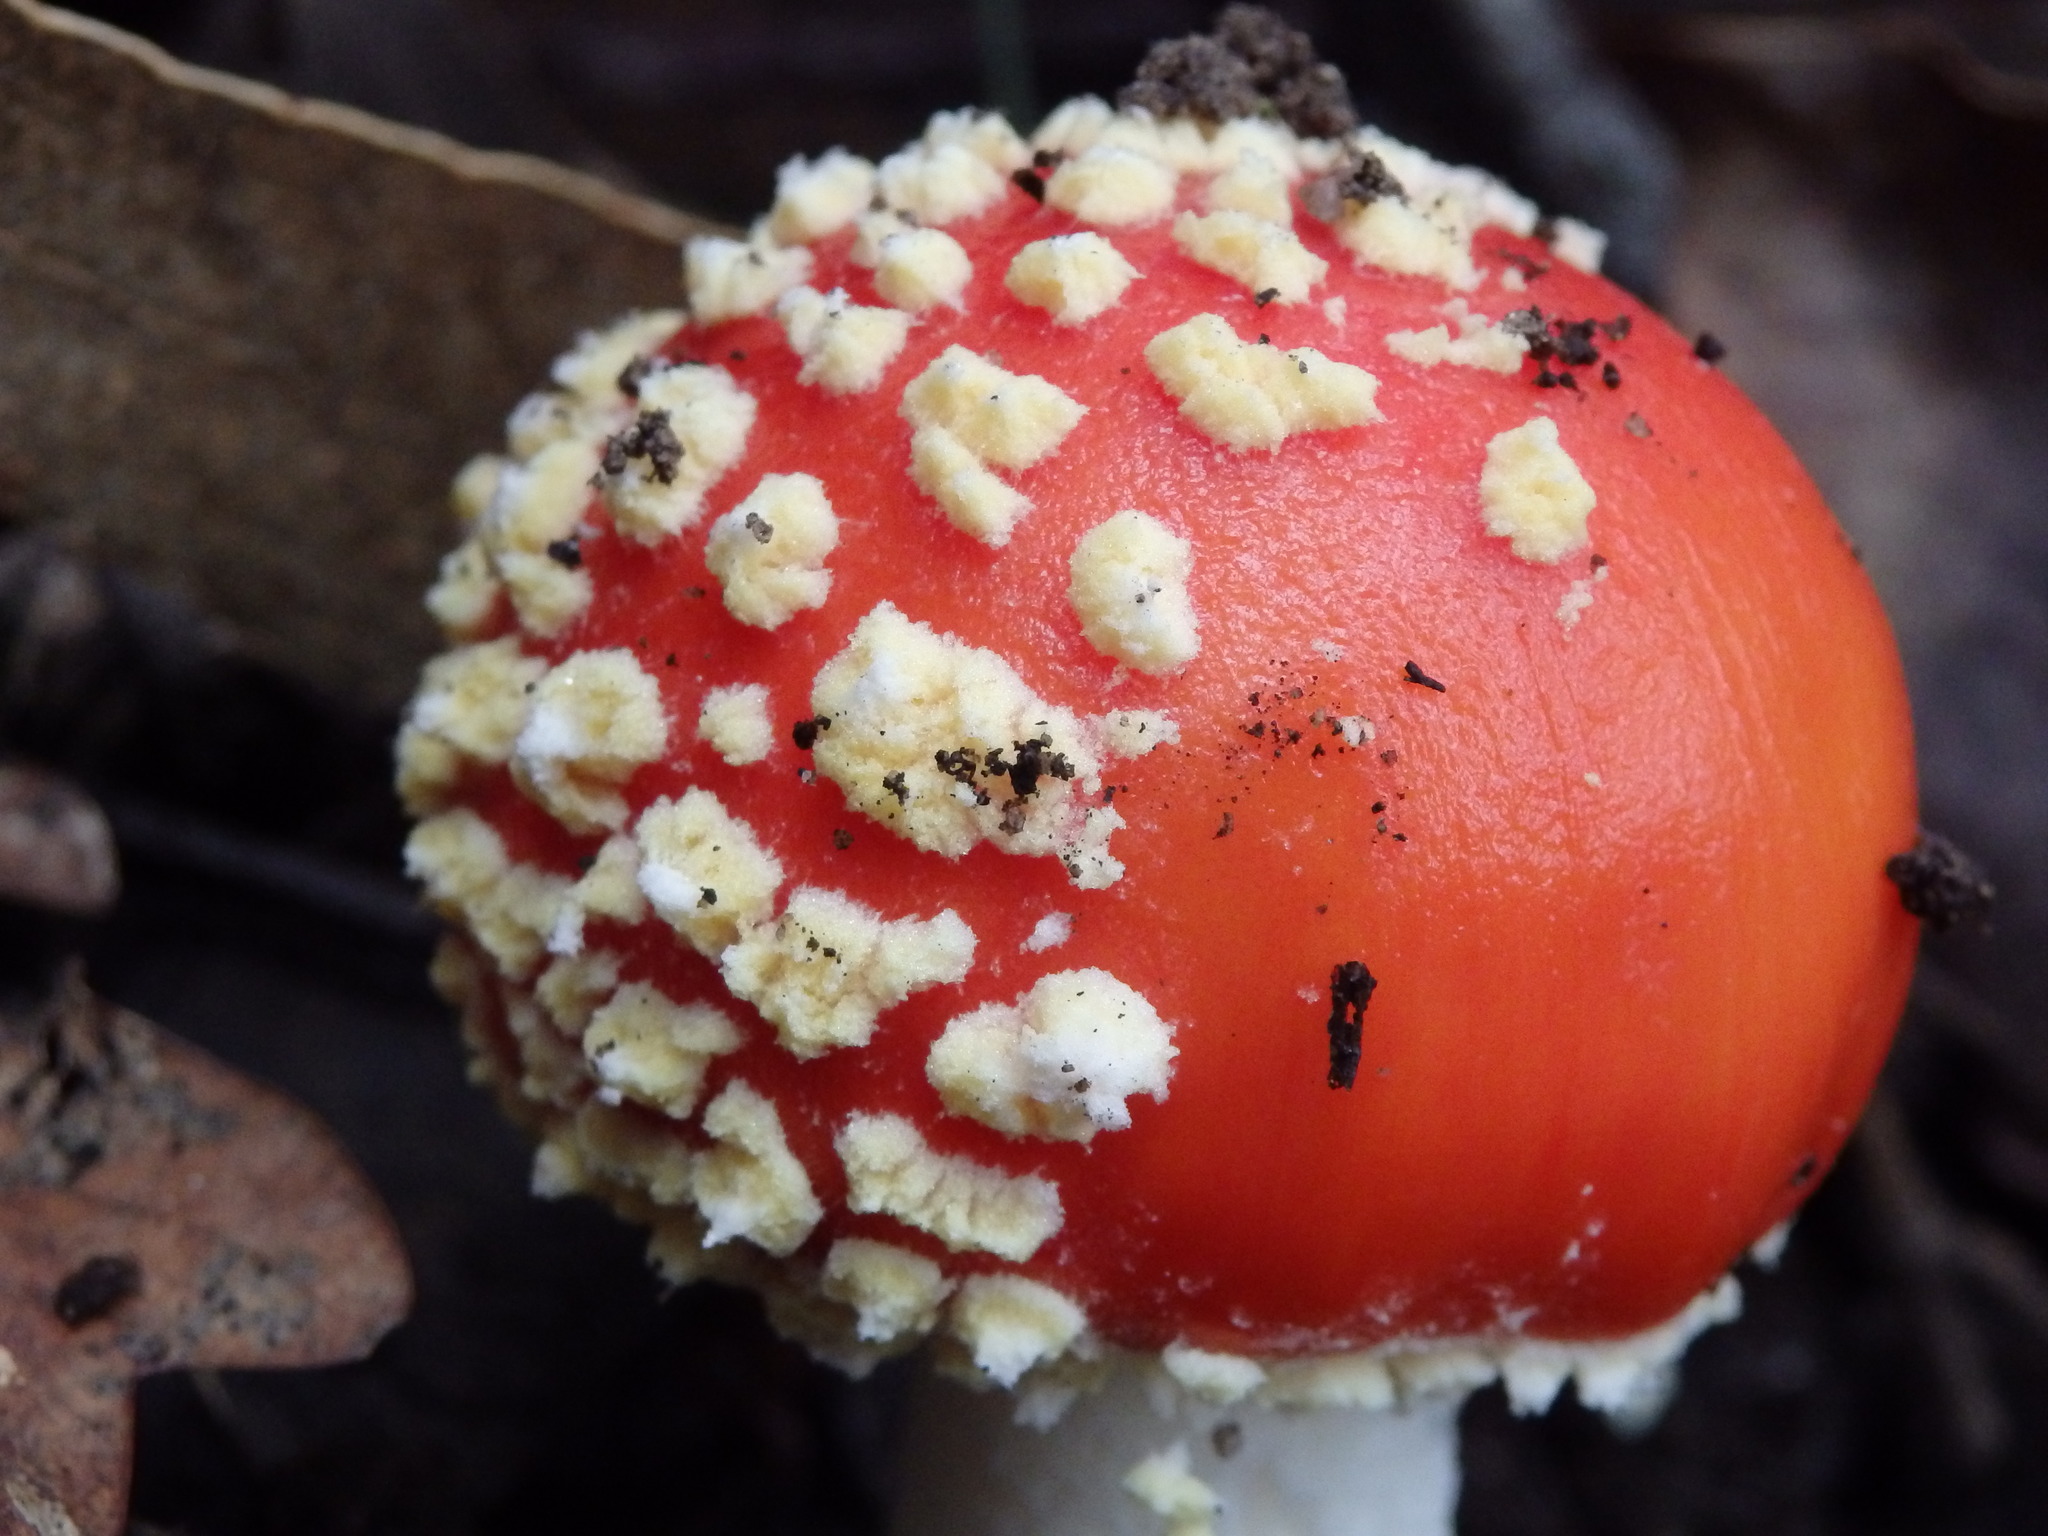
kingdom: Fungi
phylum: Basidiomycota
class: Agaricomycetes
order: Agaricales
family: Amanitaceae
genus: Amanita
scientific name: Amanita muscaria
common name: Fly agaric
